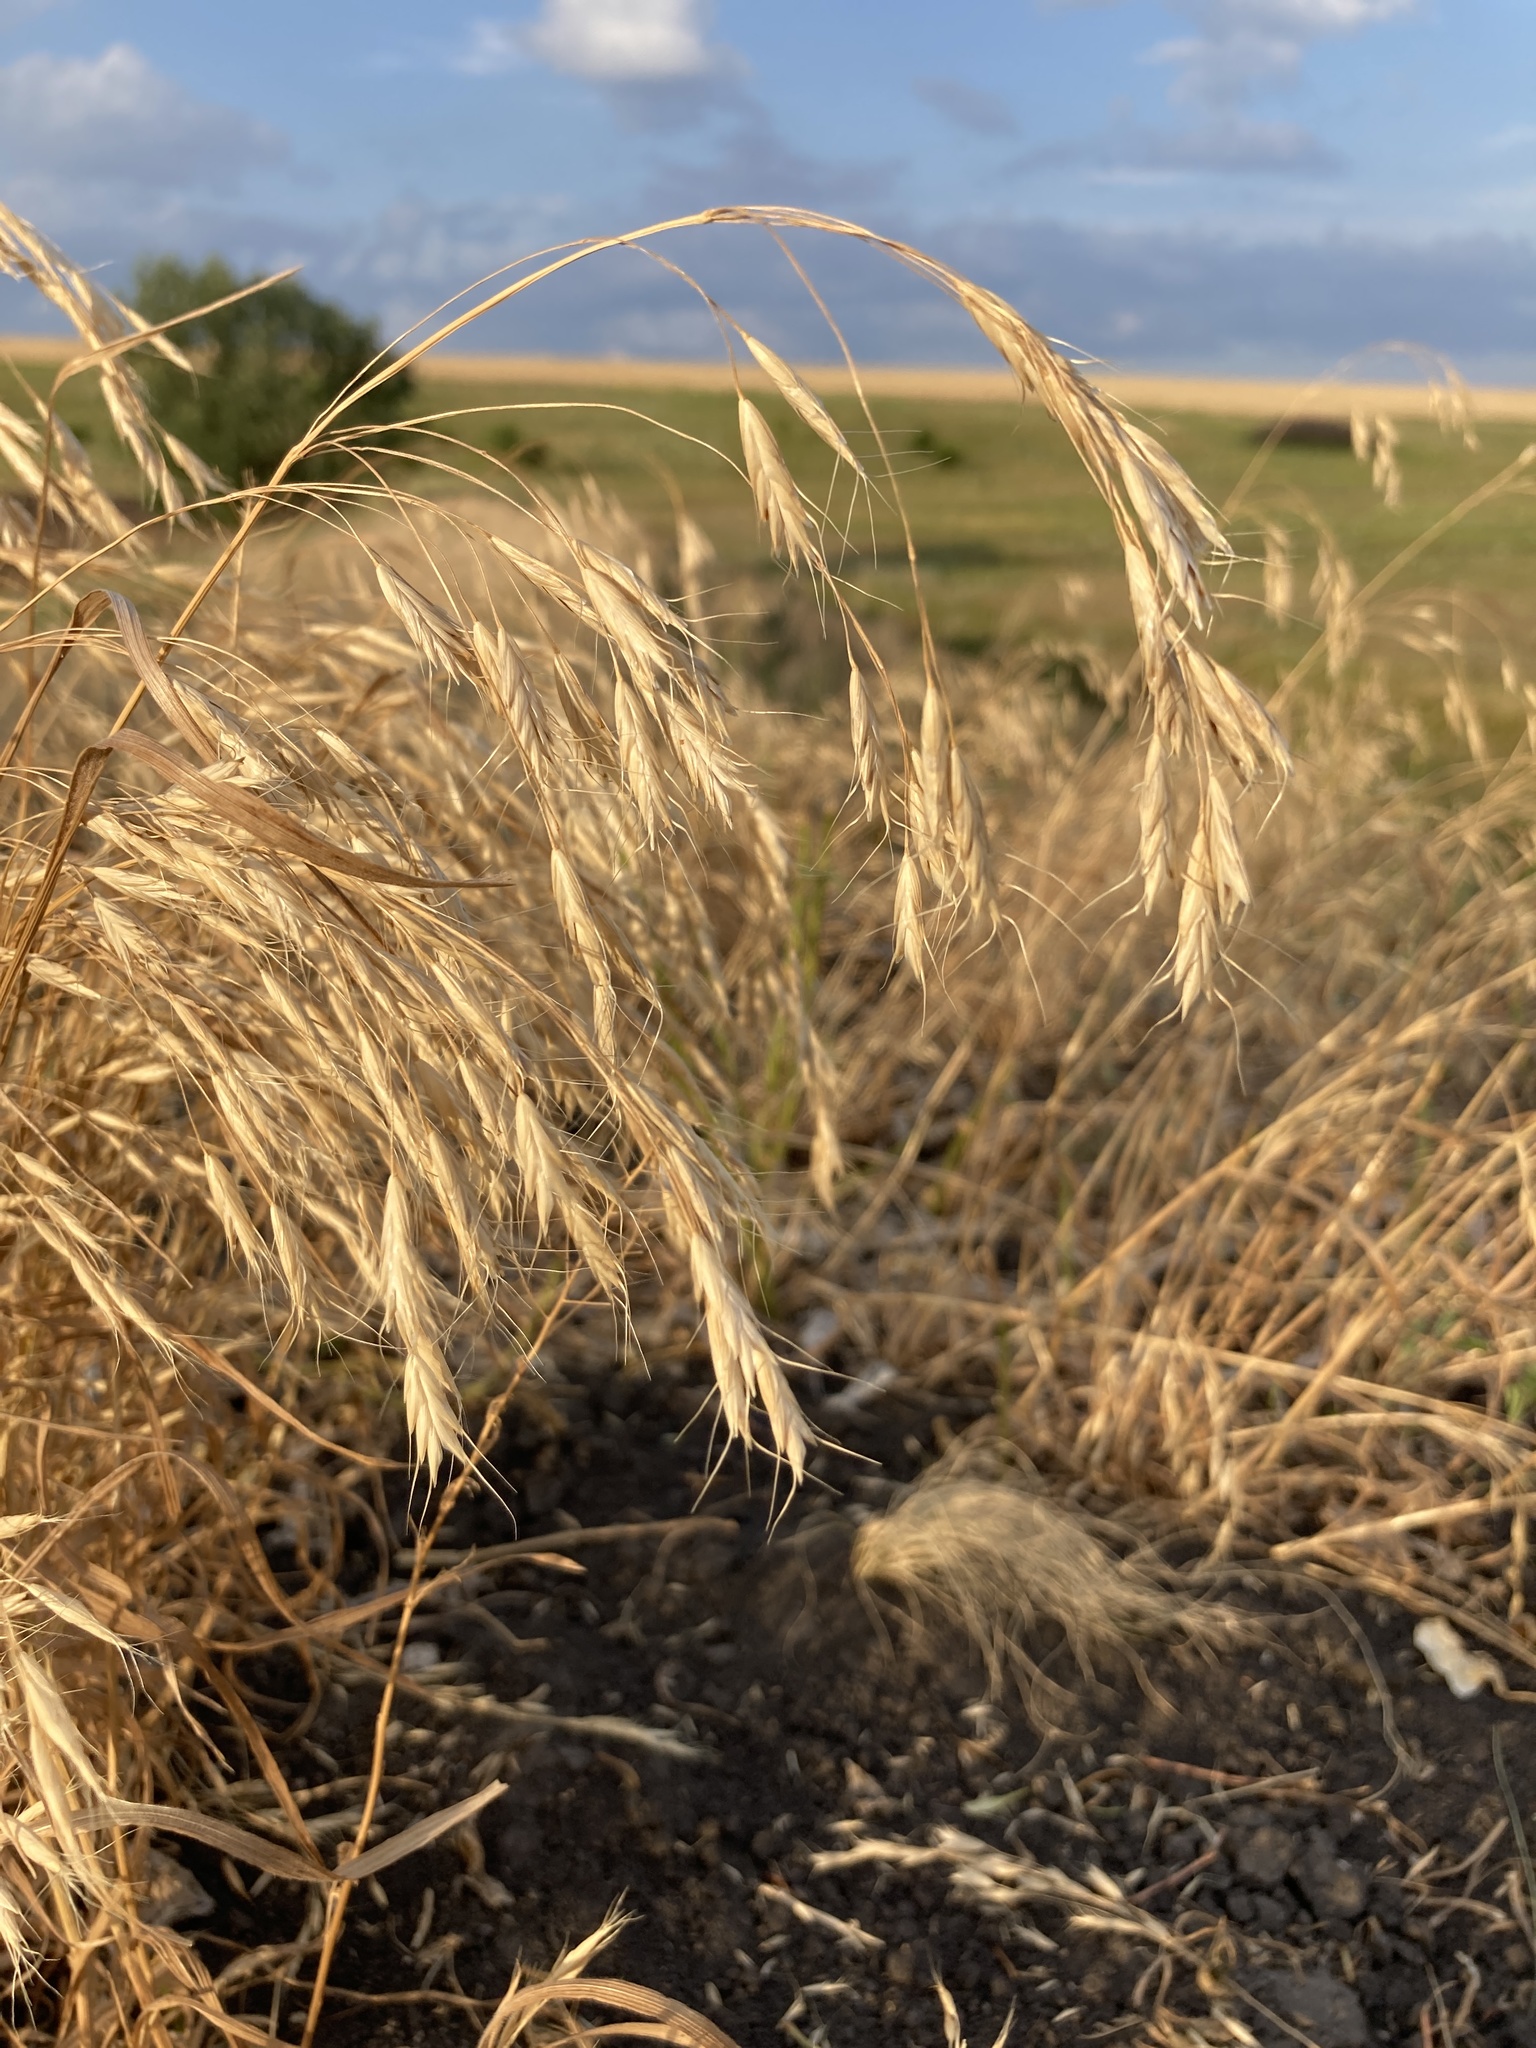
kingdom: Plantae
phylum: Tracheophyta
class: Liliopsida
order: Poales
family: Poaceae
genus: Bromus
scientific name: Bromus japonicus
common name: Japanese brome
